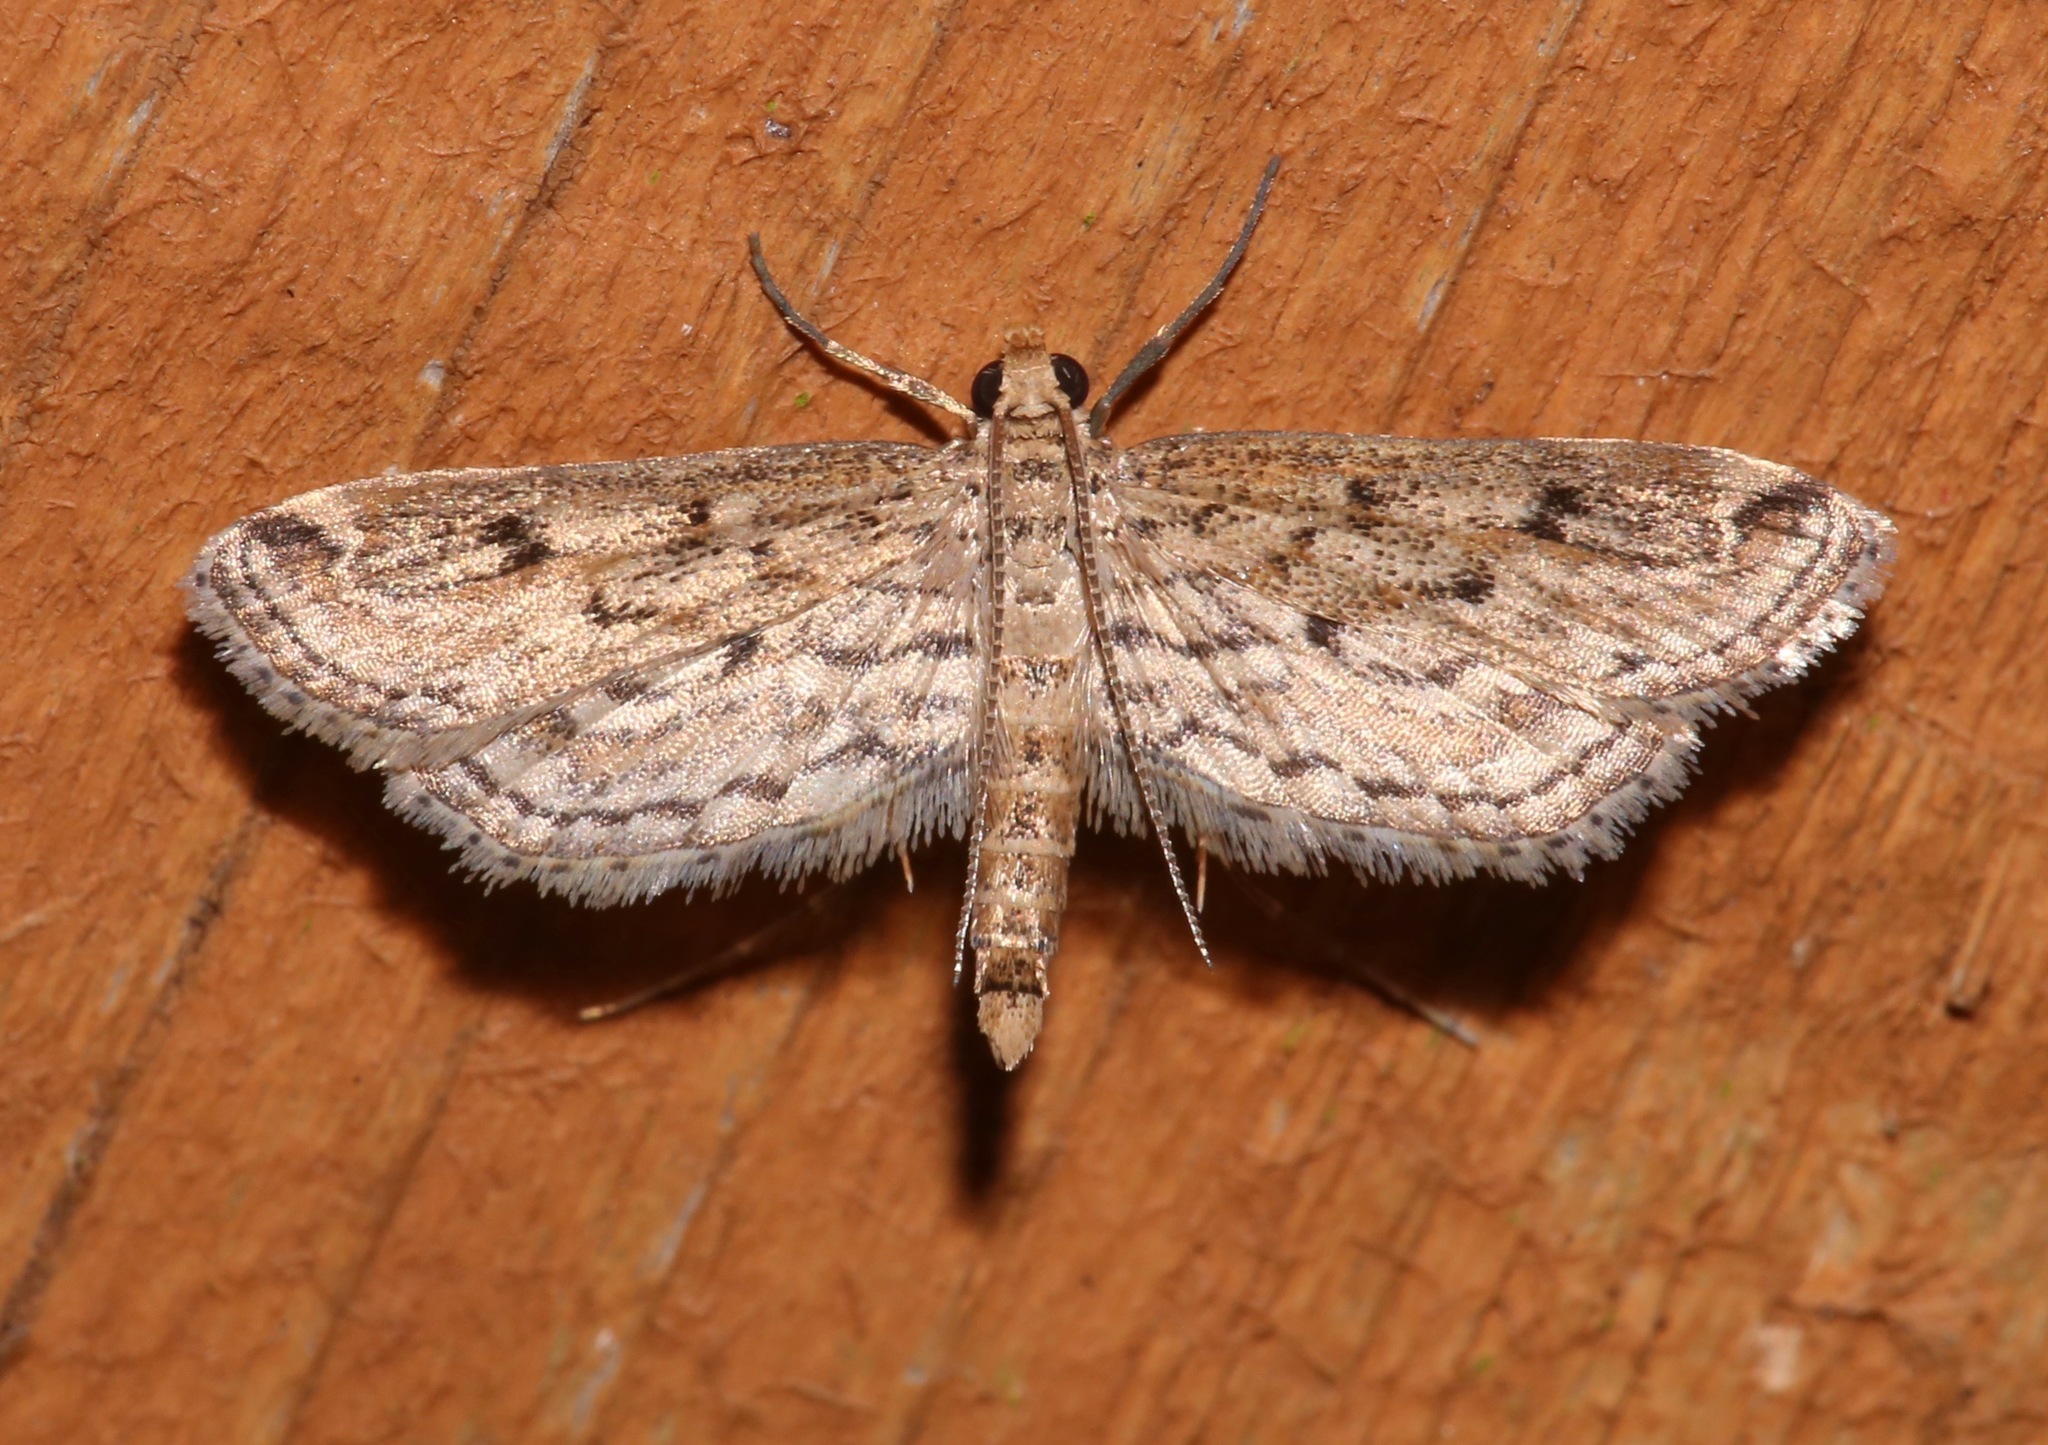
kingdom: Animalia
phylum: Arthropoda
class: Insecta
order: Lepidoptera
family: Crambidae
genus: Parapoynx
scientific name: Parapoynx allionealis
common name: Bladderwort casemaker
